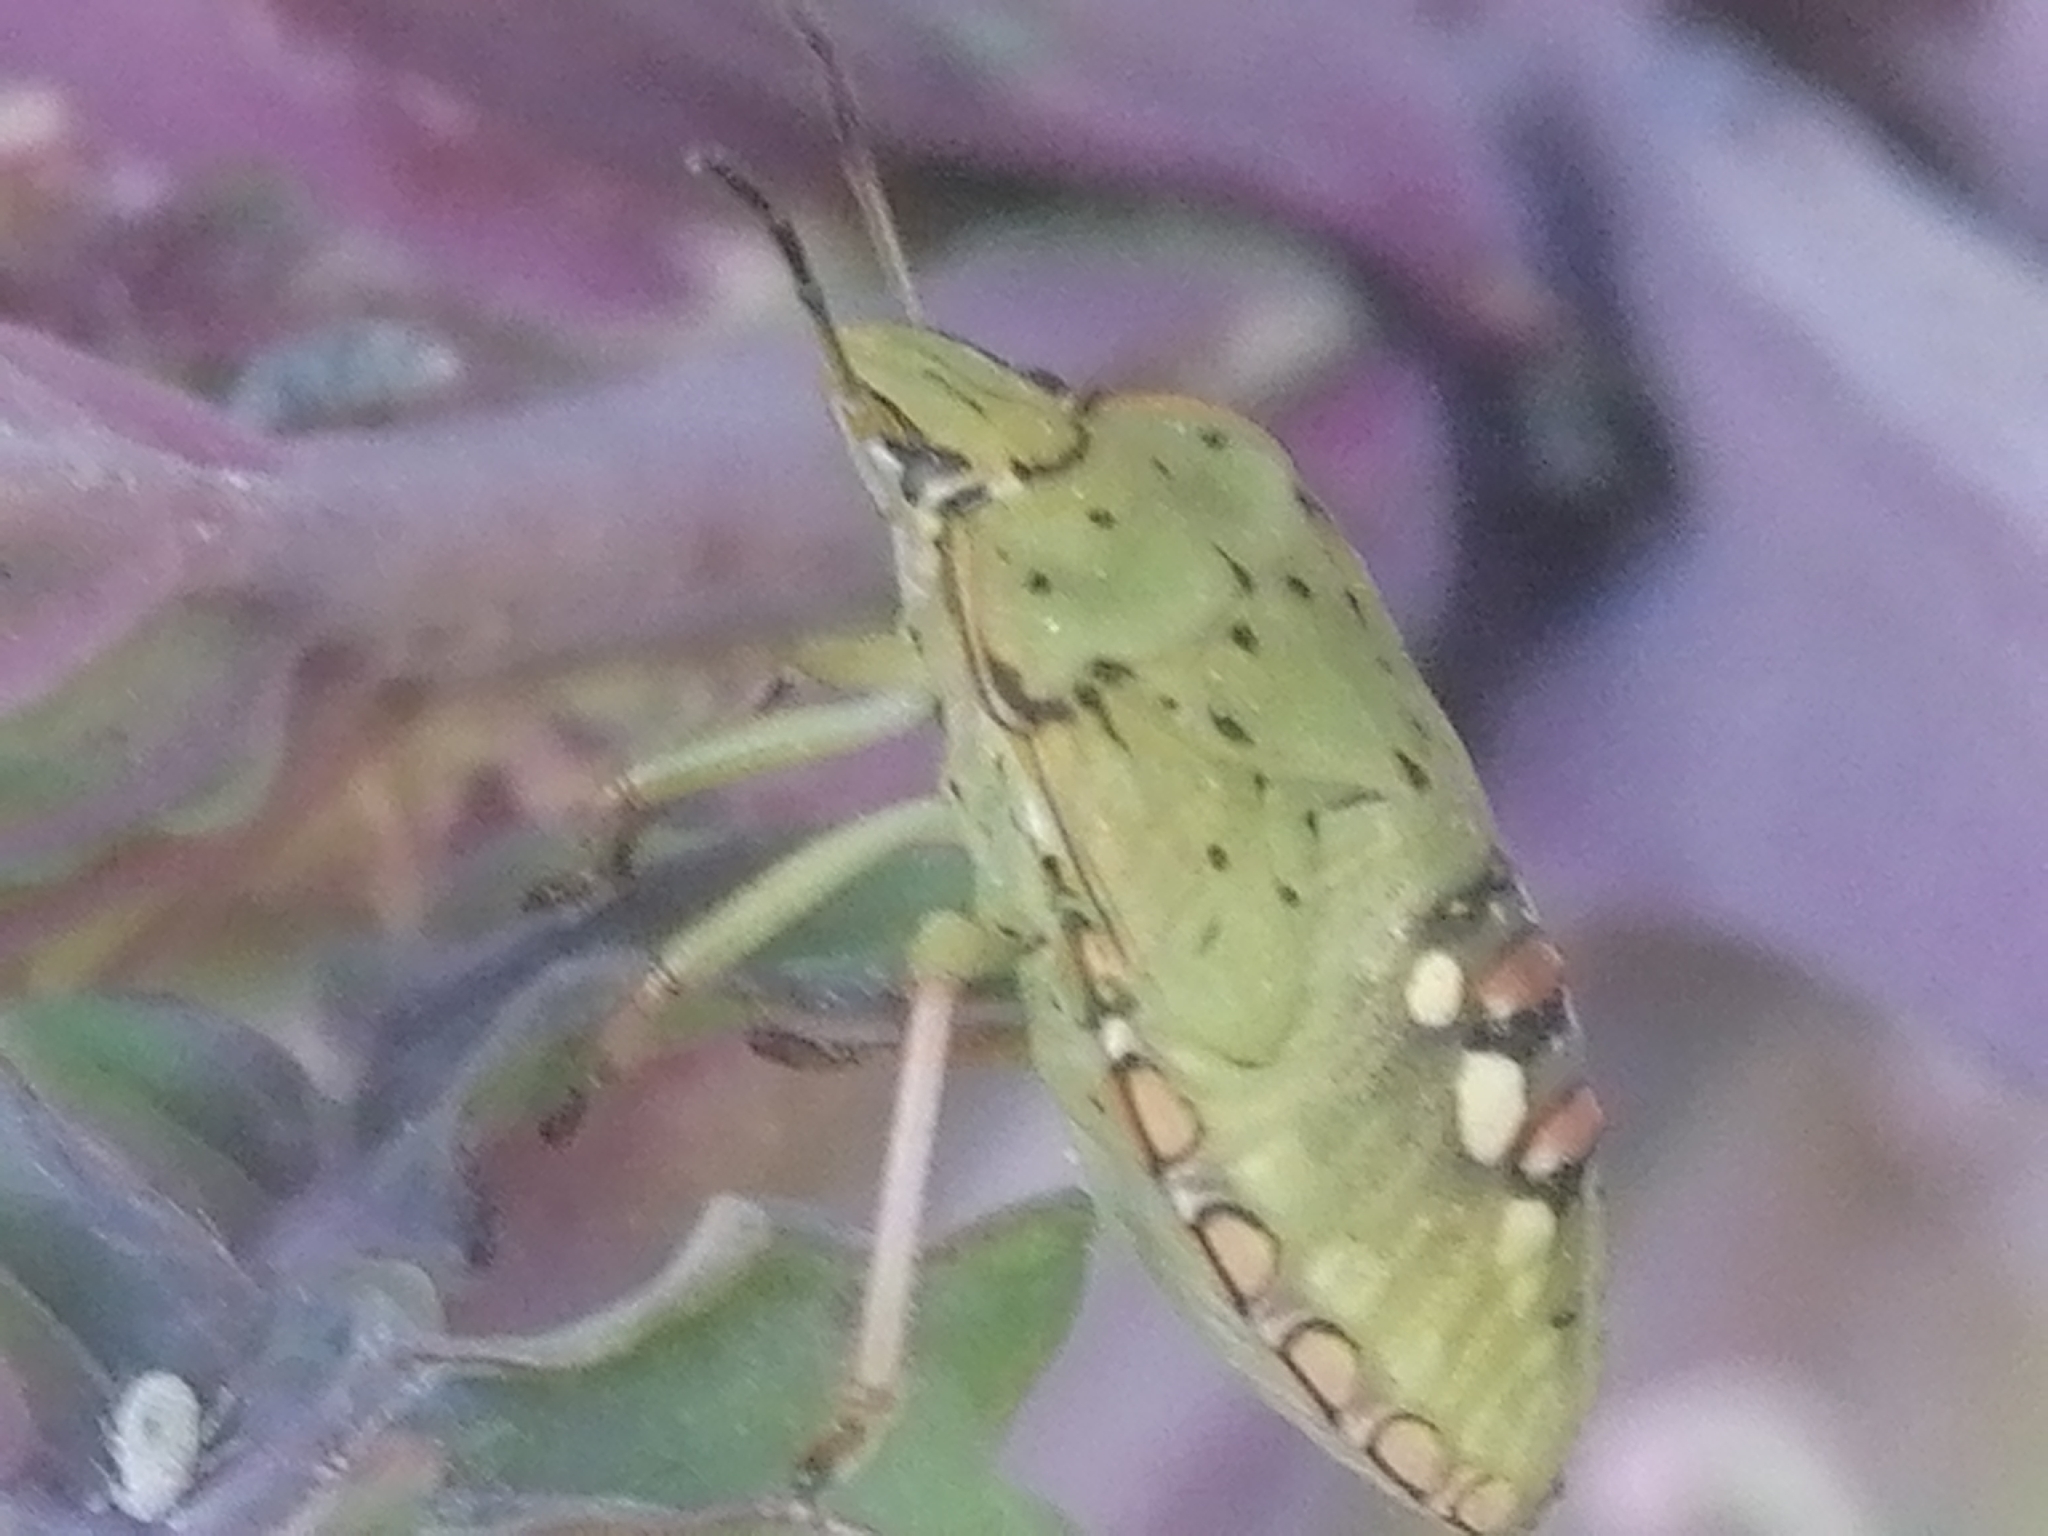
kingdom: Animalia
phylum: Arthropoda
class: Insecta
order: Hemiptera
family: Pentatomidae
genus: Nezara
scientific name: Nezara viridula
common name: Southern green stink bug
